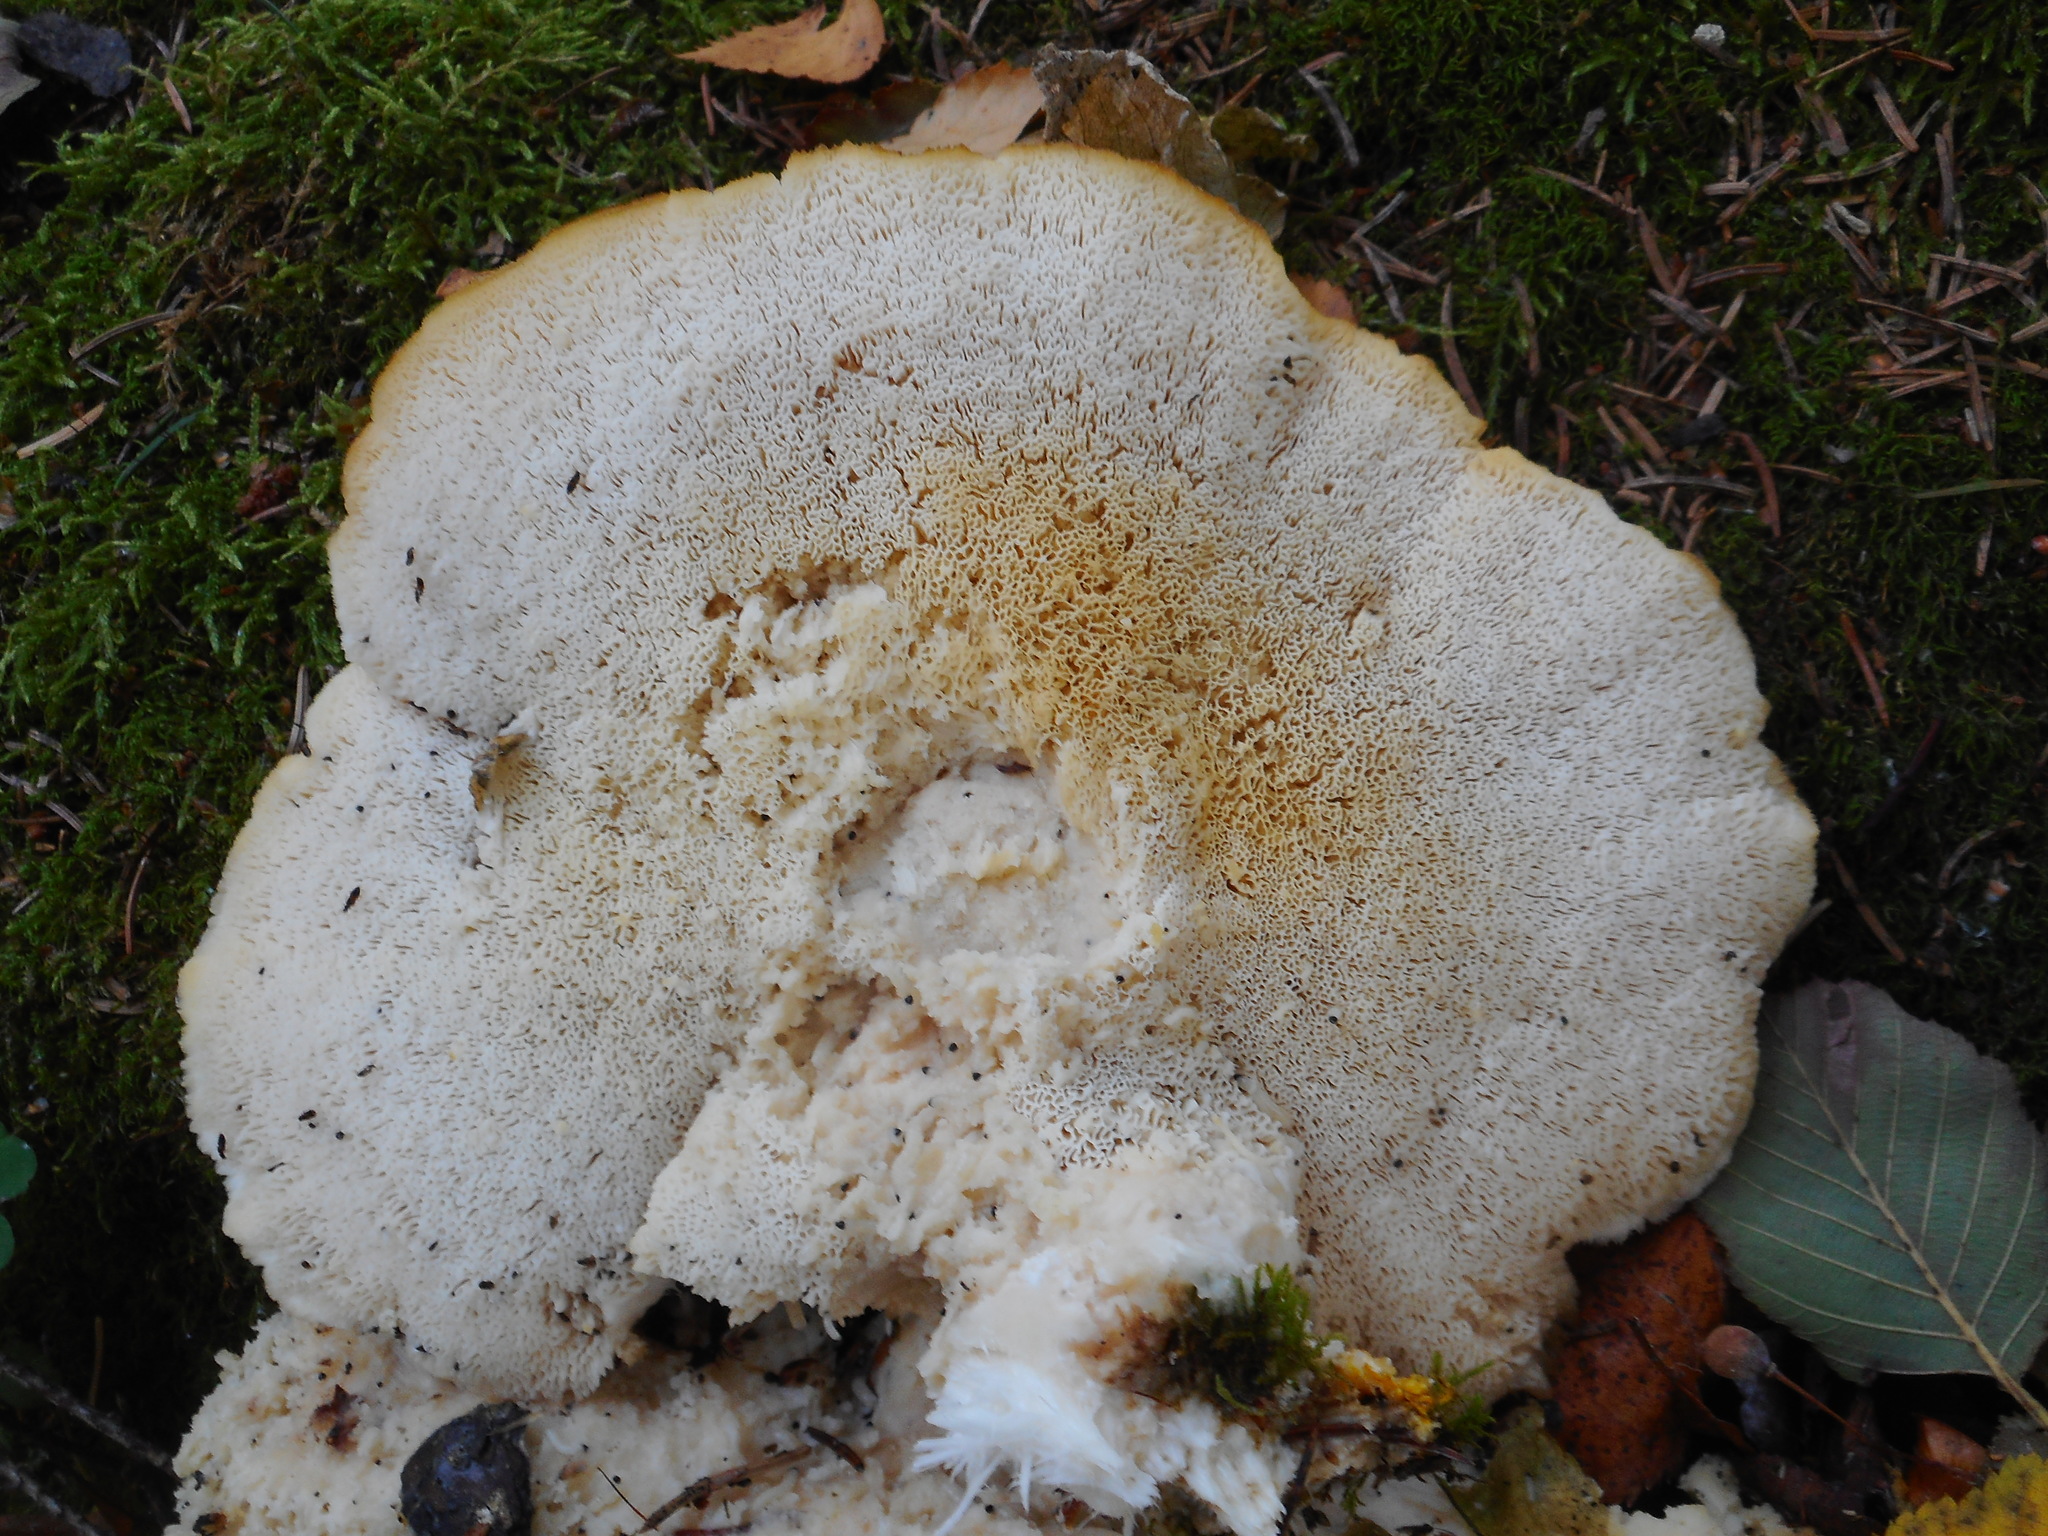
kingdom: Fungi
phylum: Basidiomycota
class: Agaricomycetes
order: Polyporales
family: Fomitopsidaceae
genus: Climacocystis
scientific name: Climacocystis borealis
